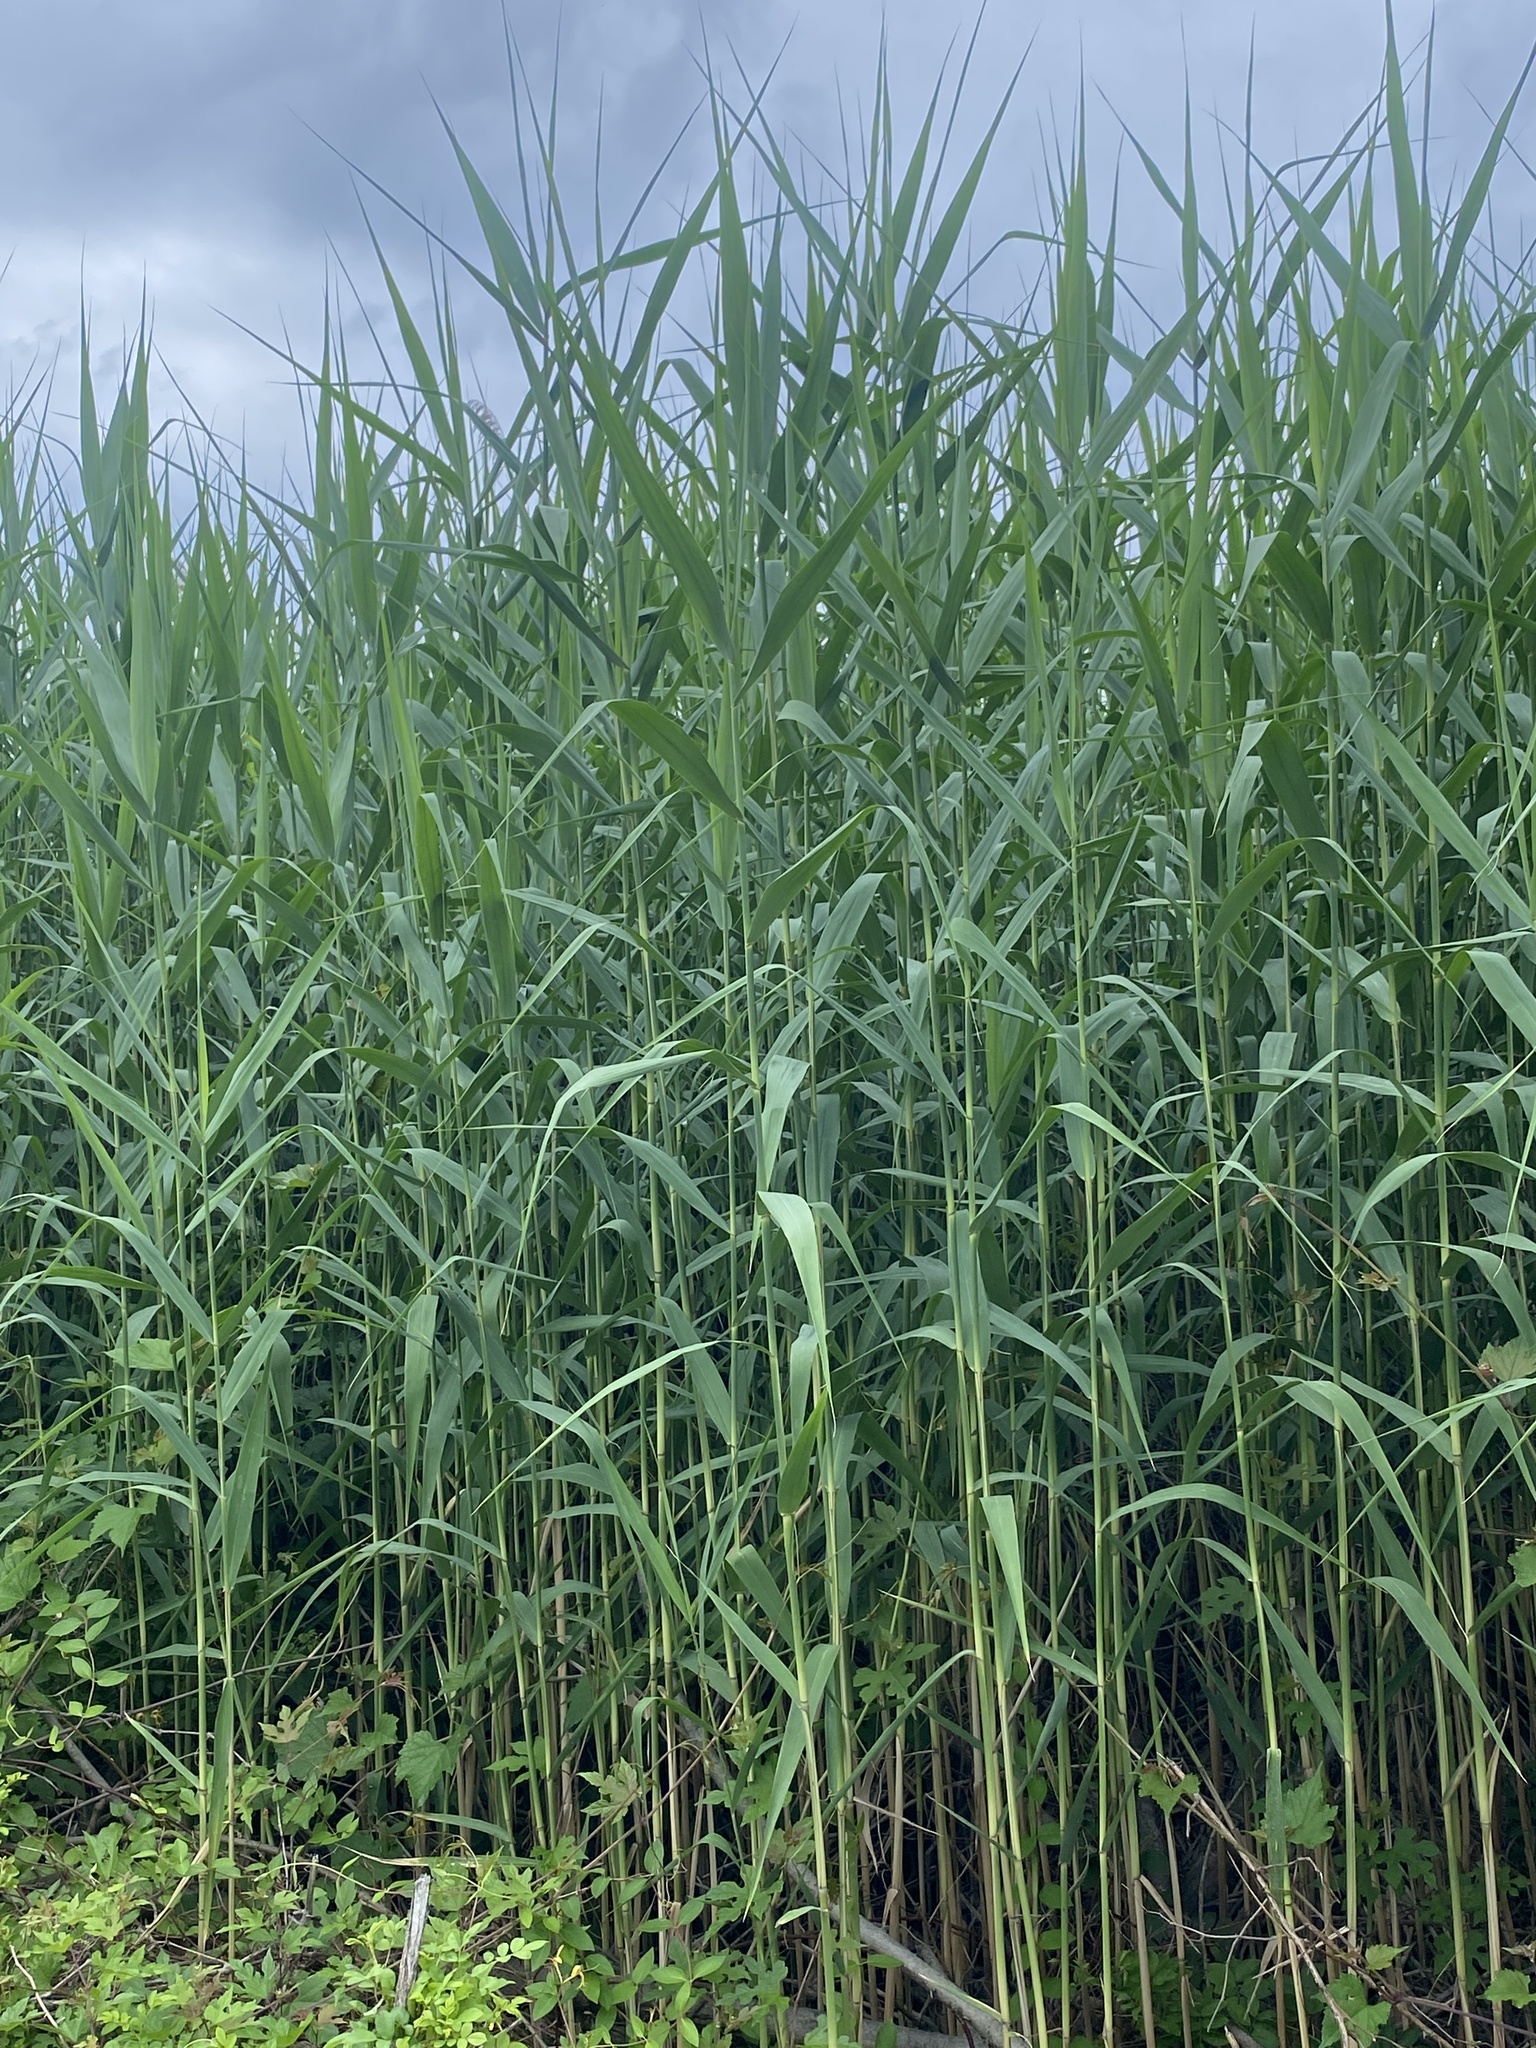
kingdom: Plantae
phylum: Tracheophyta
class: Liliopsida
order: Poales
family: Poaceae
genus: Phragmites
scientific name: Phragmites australis
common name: Common reed
